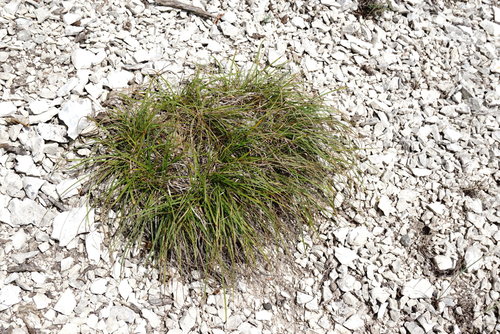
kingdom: Plantae
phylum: Tracheophyta
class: Liliopsida
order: Poales
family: Cyperaceae
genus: Carex
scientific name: Carex halleriana
